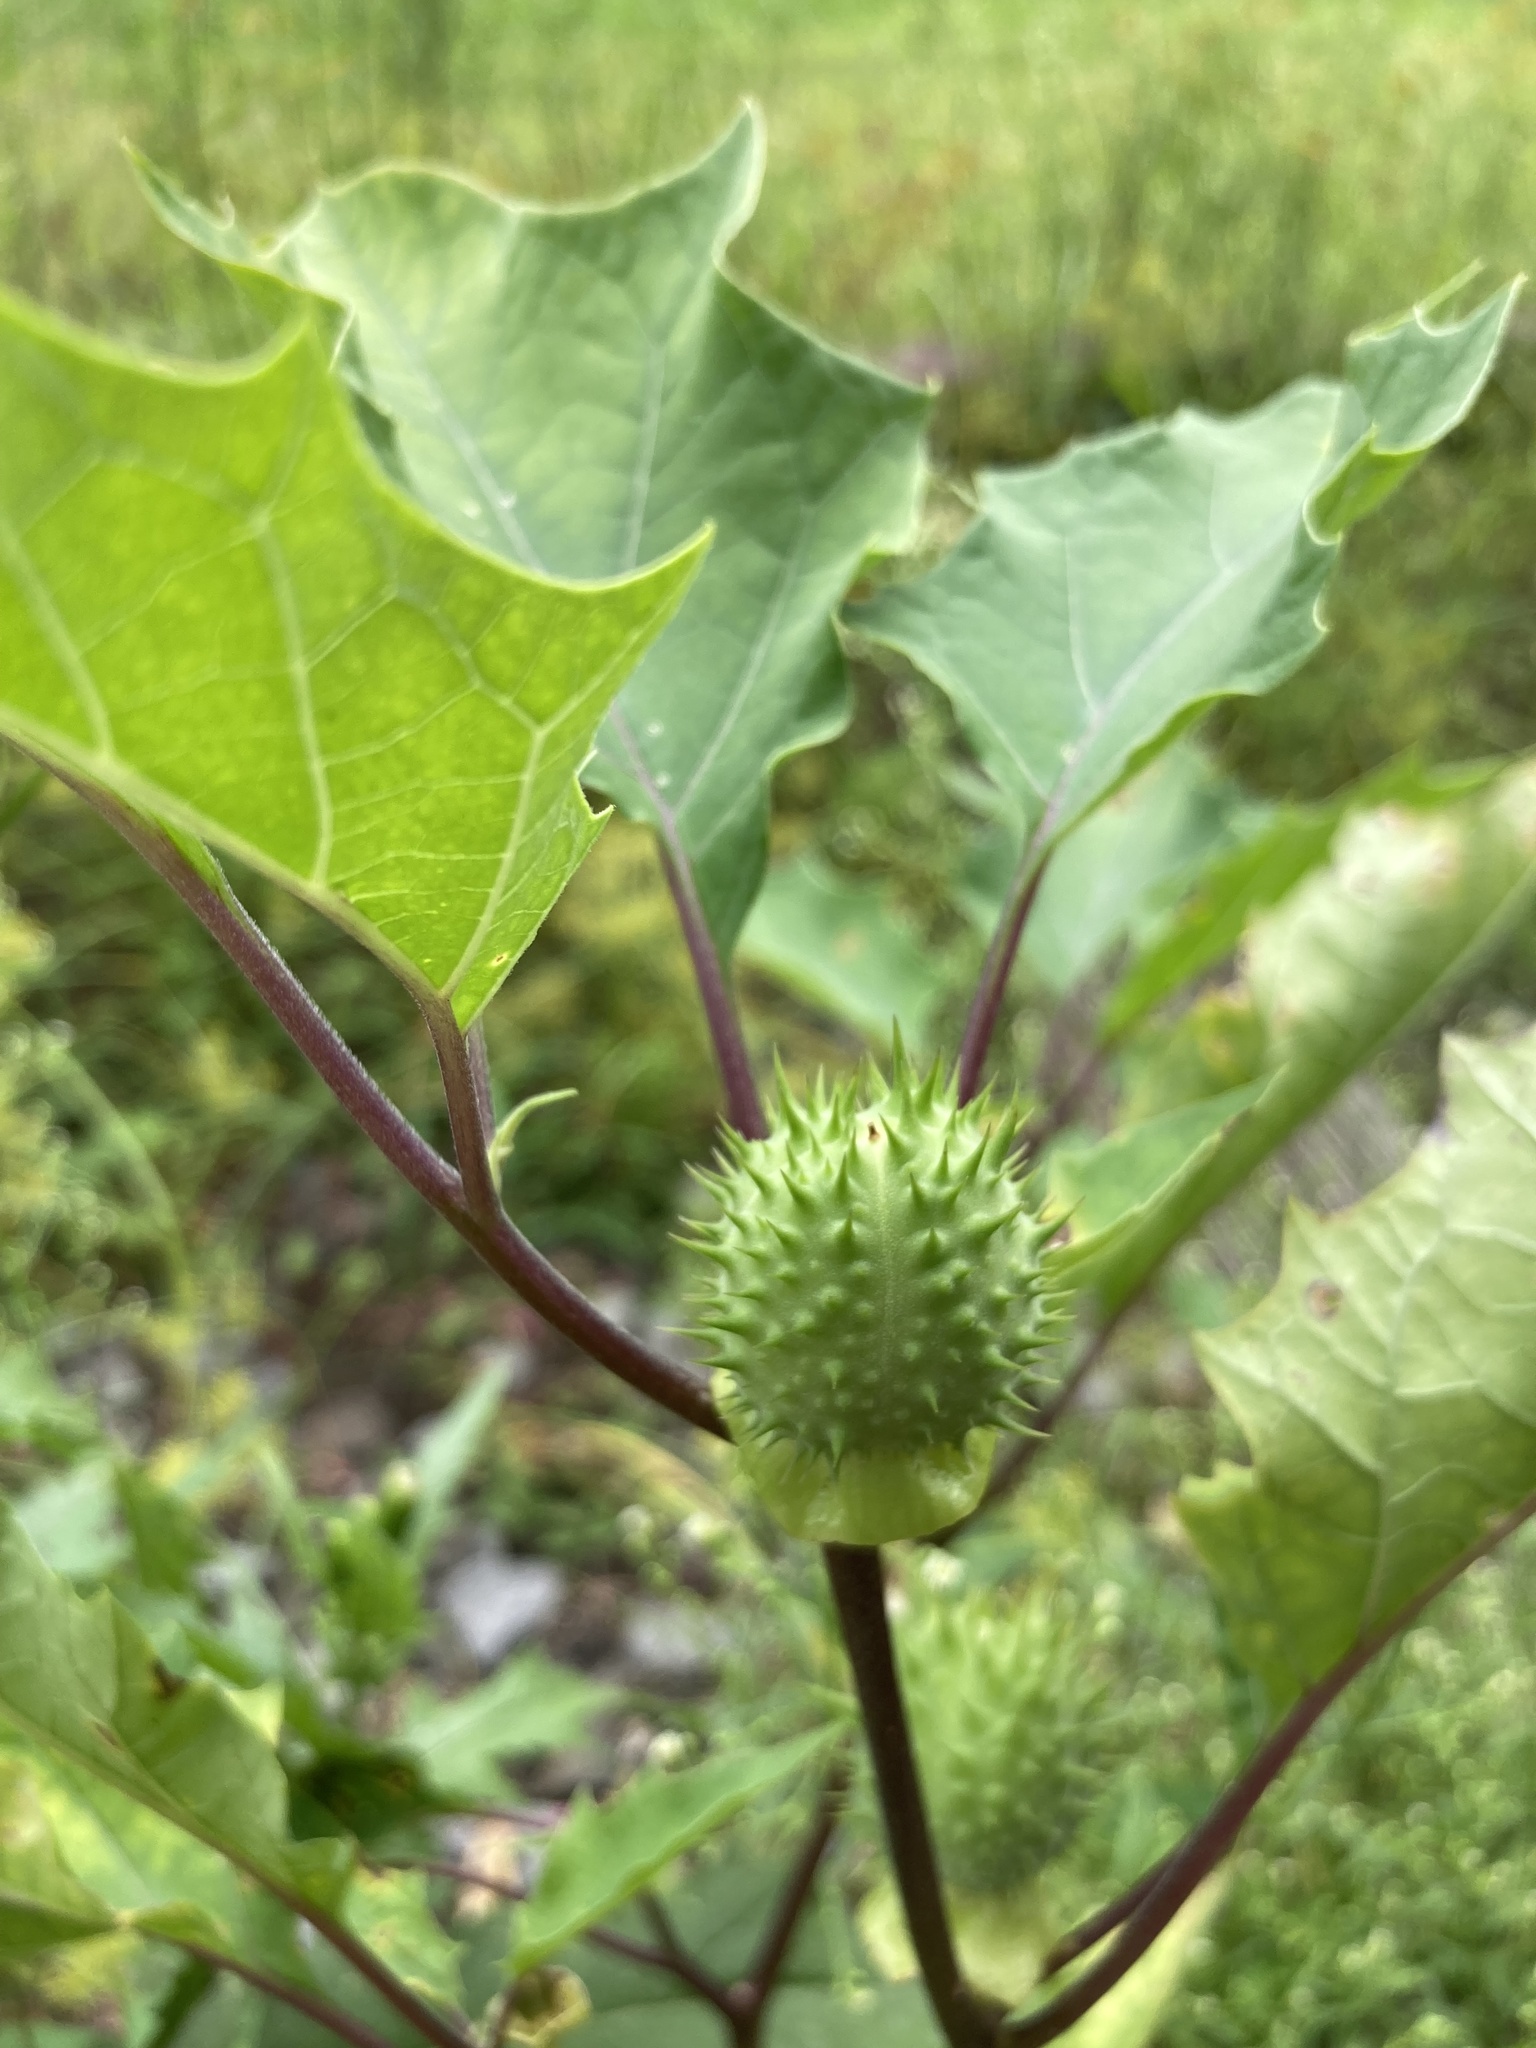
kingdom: Plantae
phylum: Tracheophyta
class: Magnoliopsida
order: Solanales
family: Solanaceae
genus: Datura
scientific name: Datura stramonium
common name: Thorn-apple
